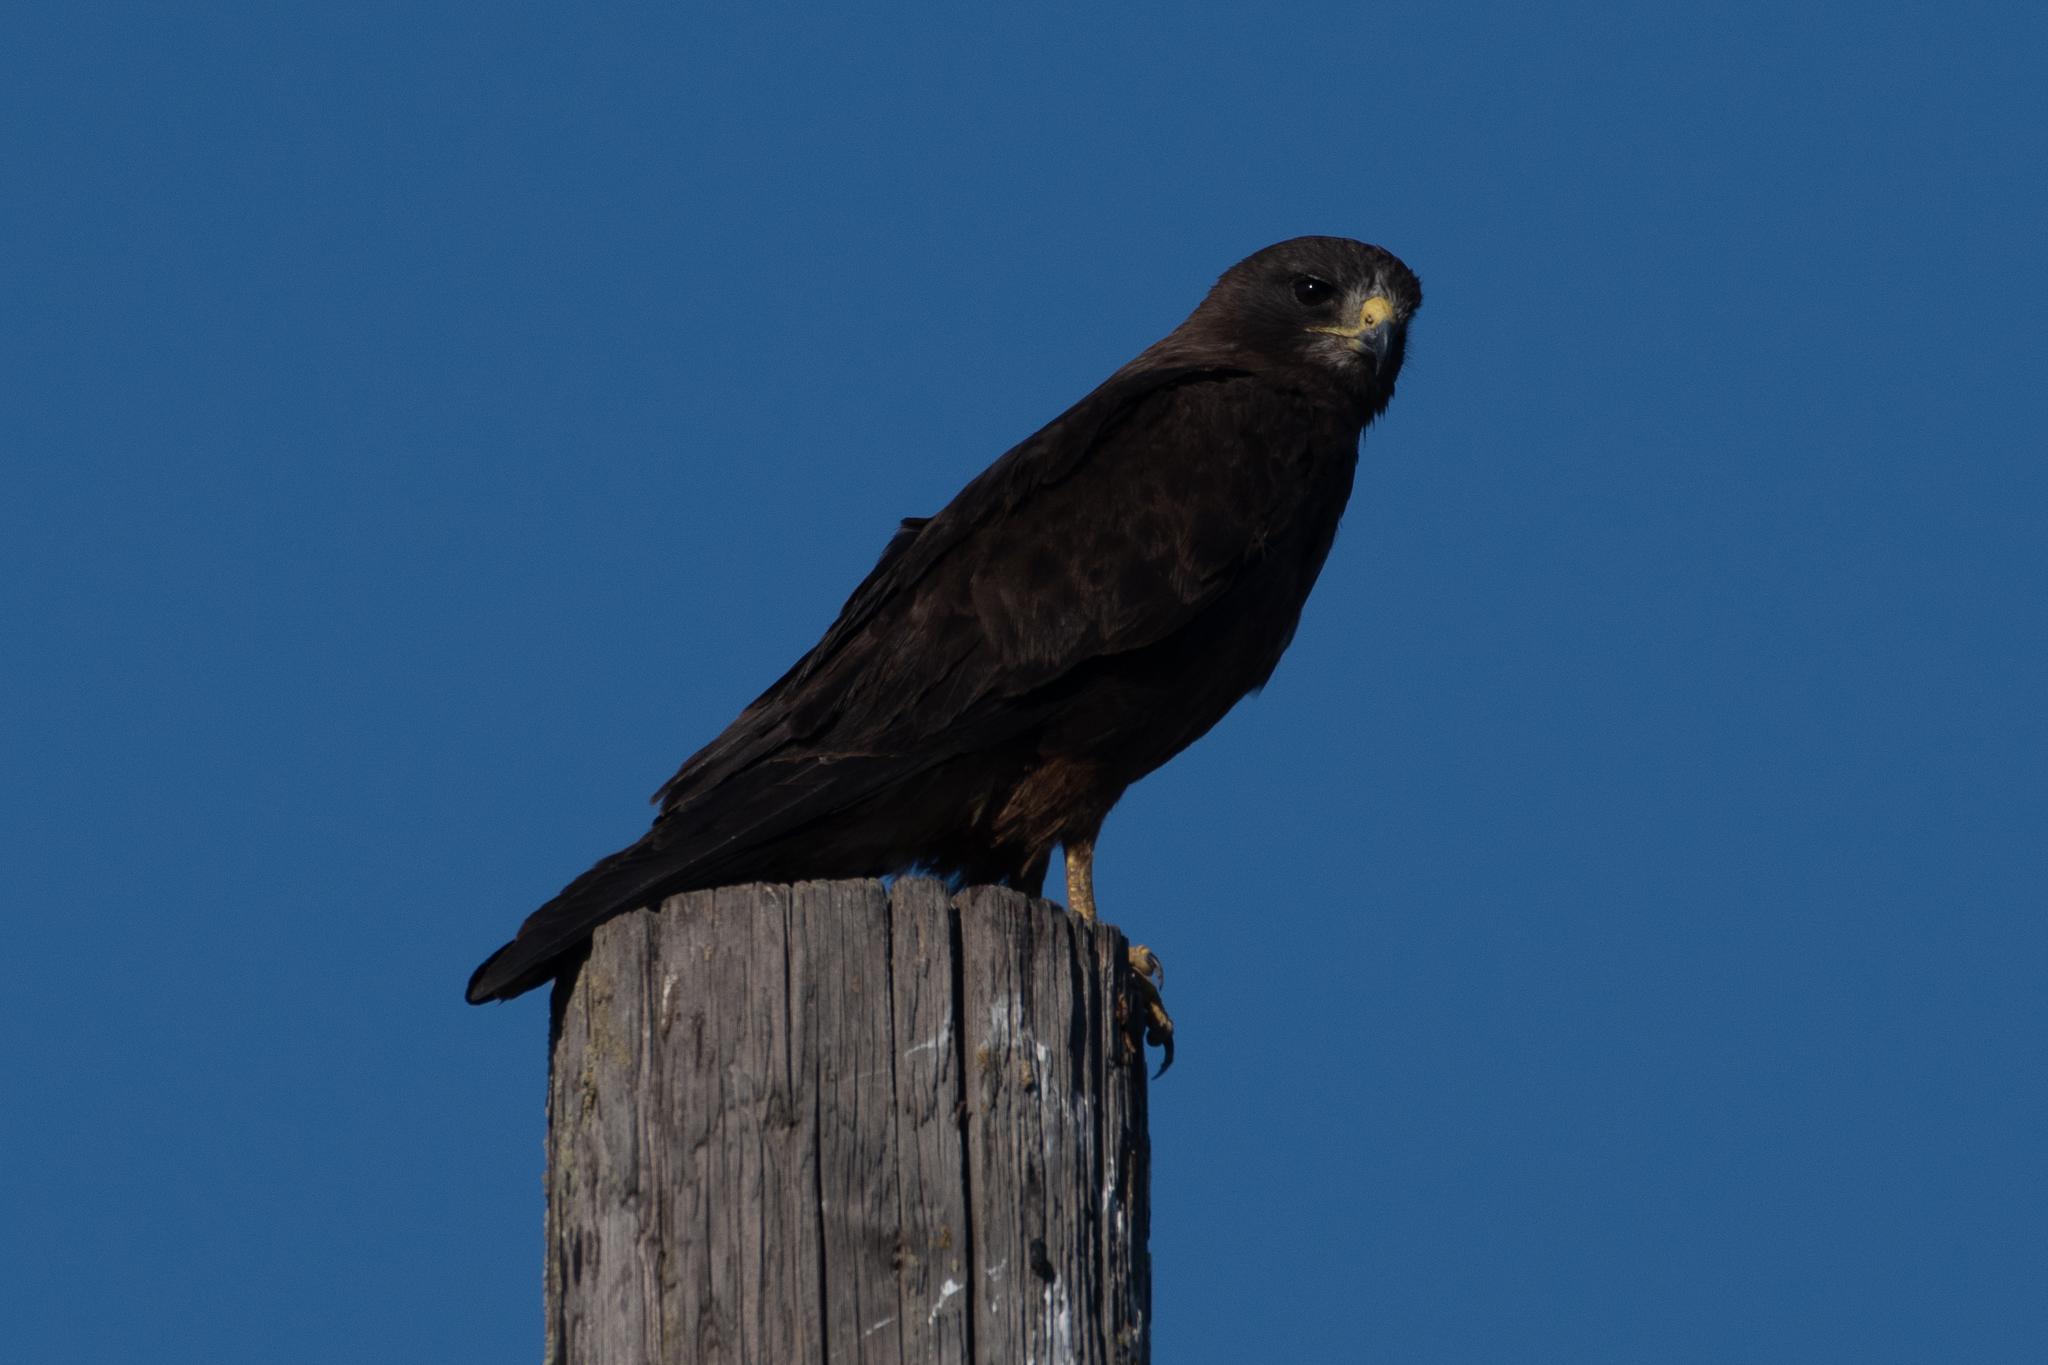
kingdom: Animalia
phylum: Chordata
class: Aves
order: Accipitriformes
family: Accipitridae
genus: Buteo
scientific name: Buteo swainsoni
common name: Swainson's hawk
